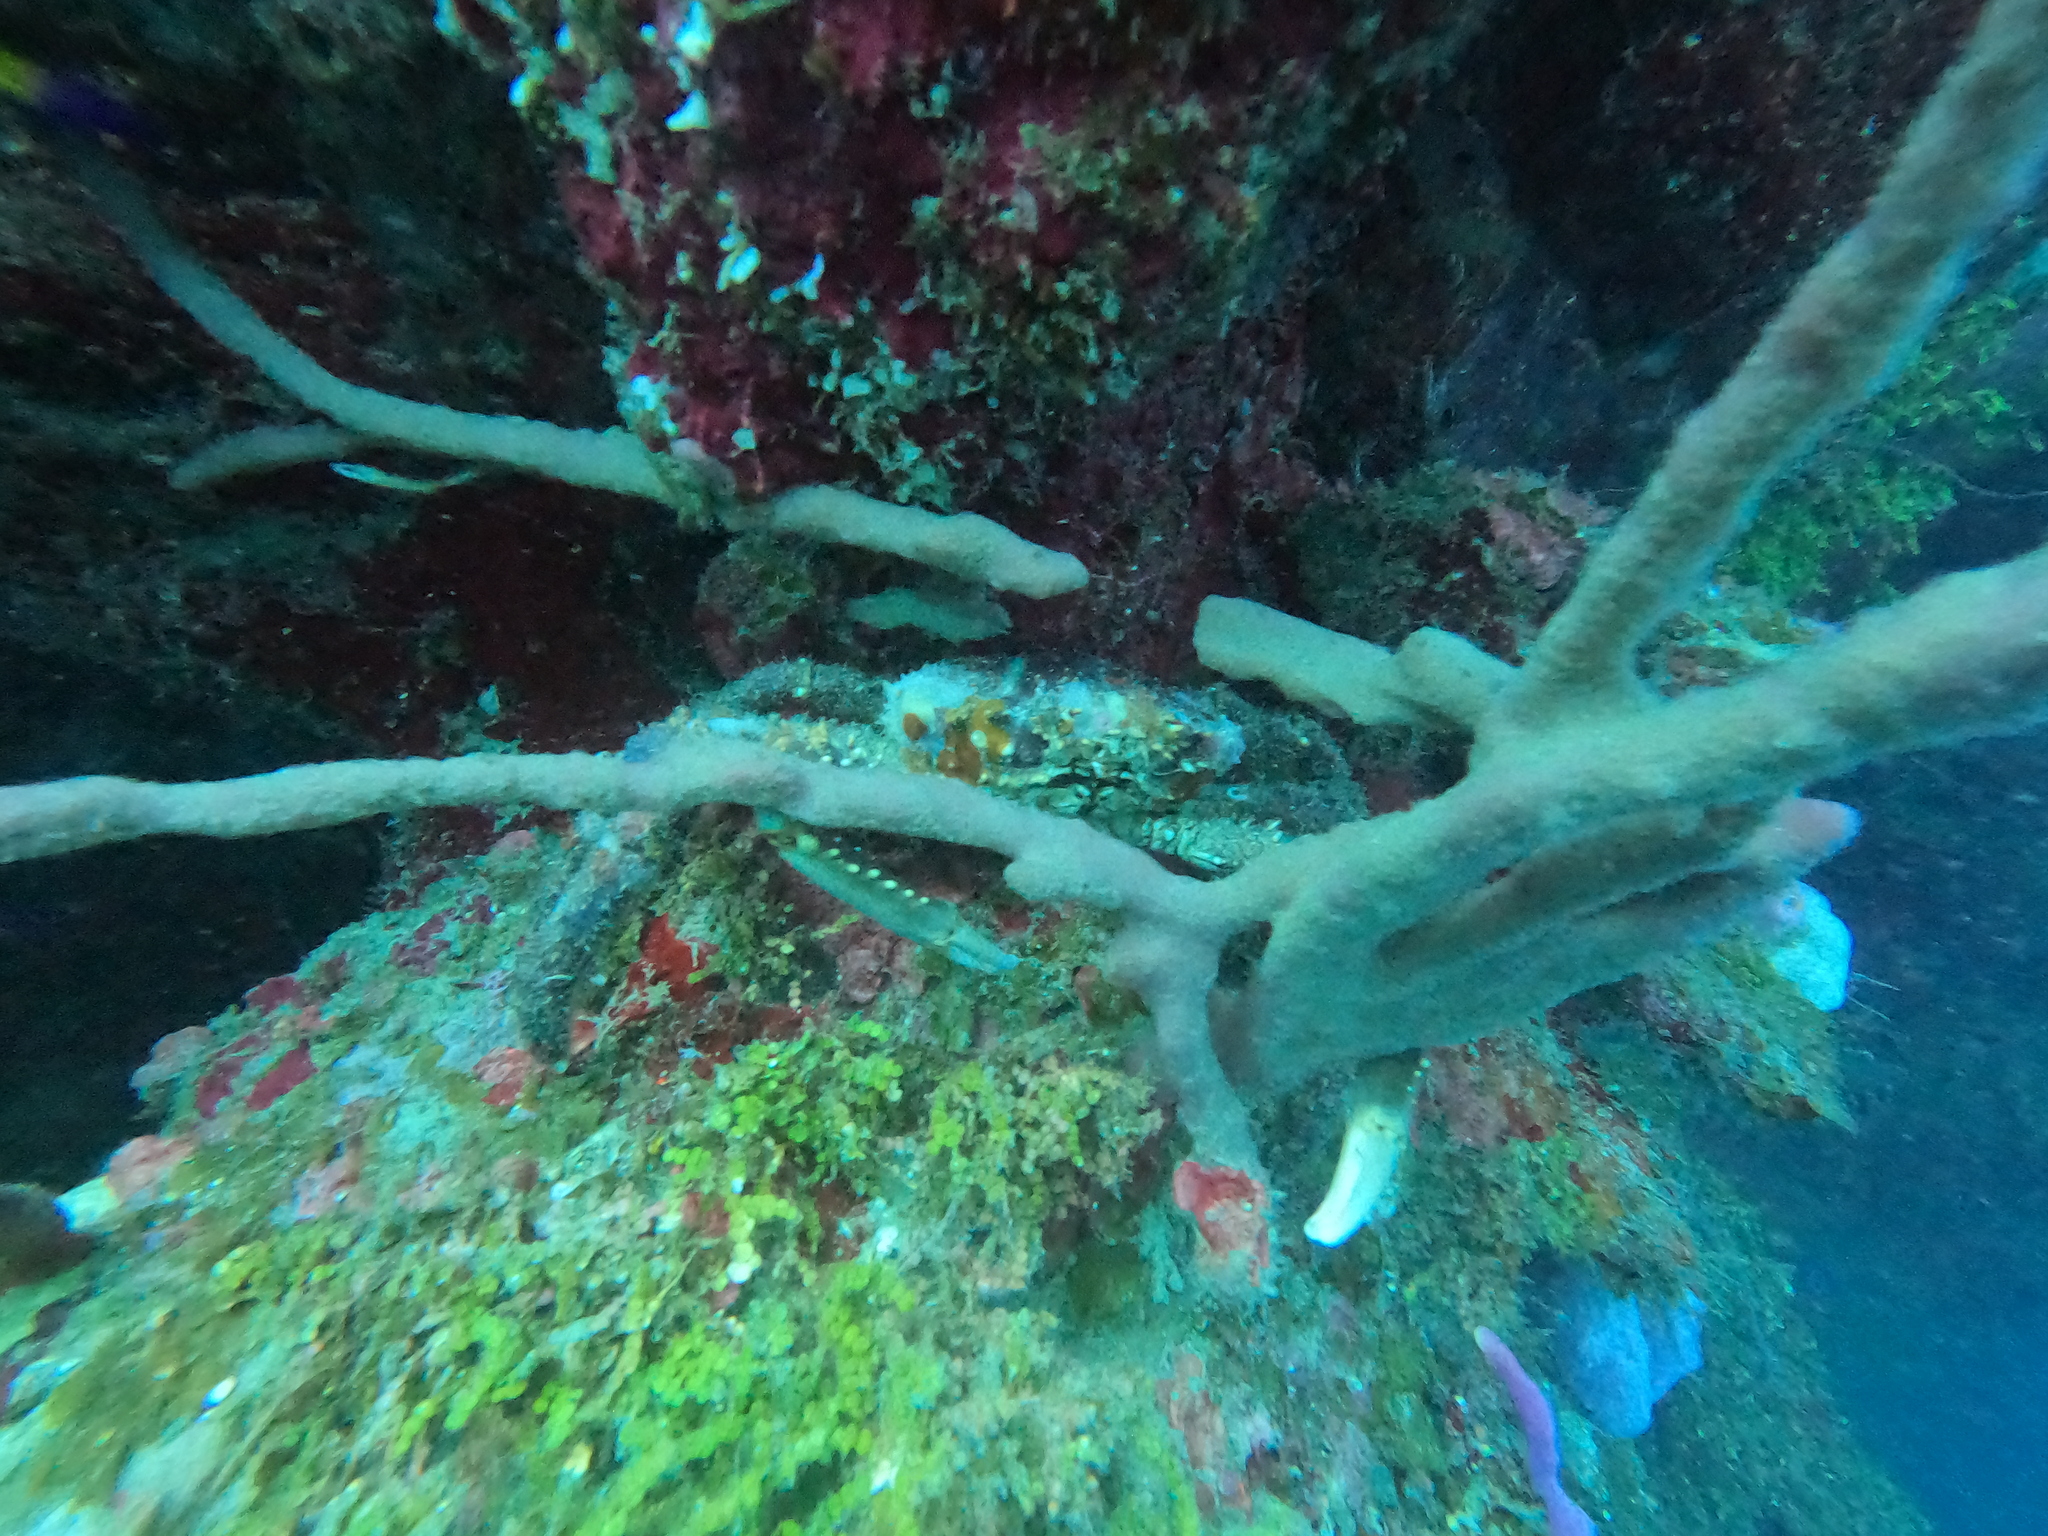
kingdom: Animalia
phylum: Arthropoda
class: Malacostraca
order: Decapoda
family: Mithracidae
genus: Maguimithrax
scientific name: Maguimithrax spinosissimus
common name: Spiny spider crab
